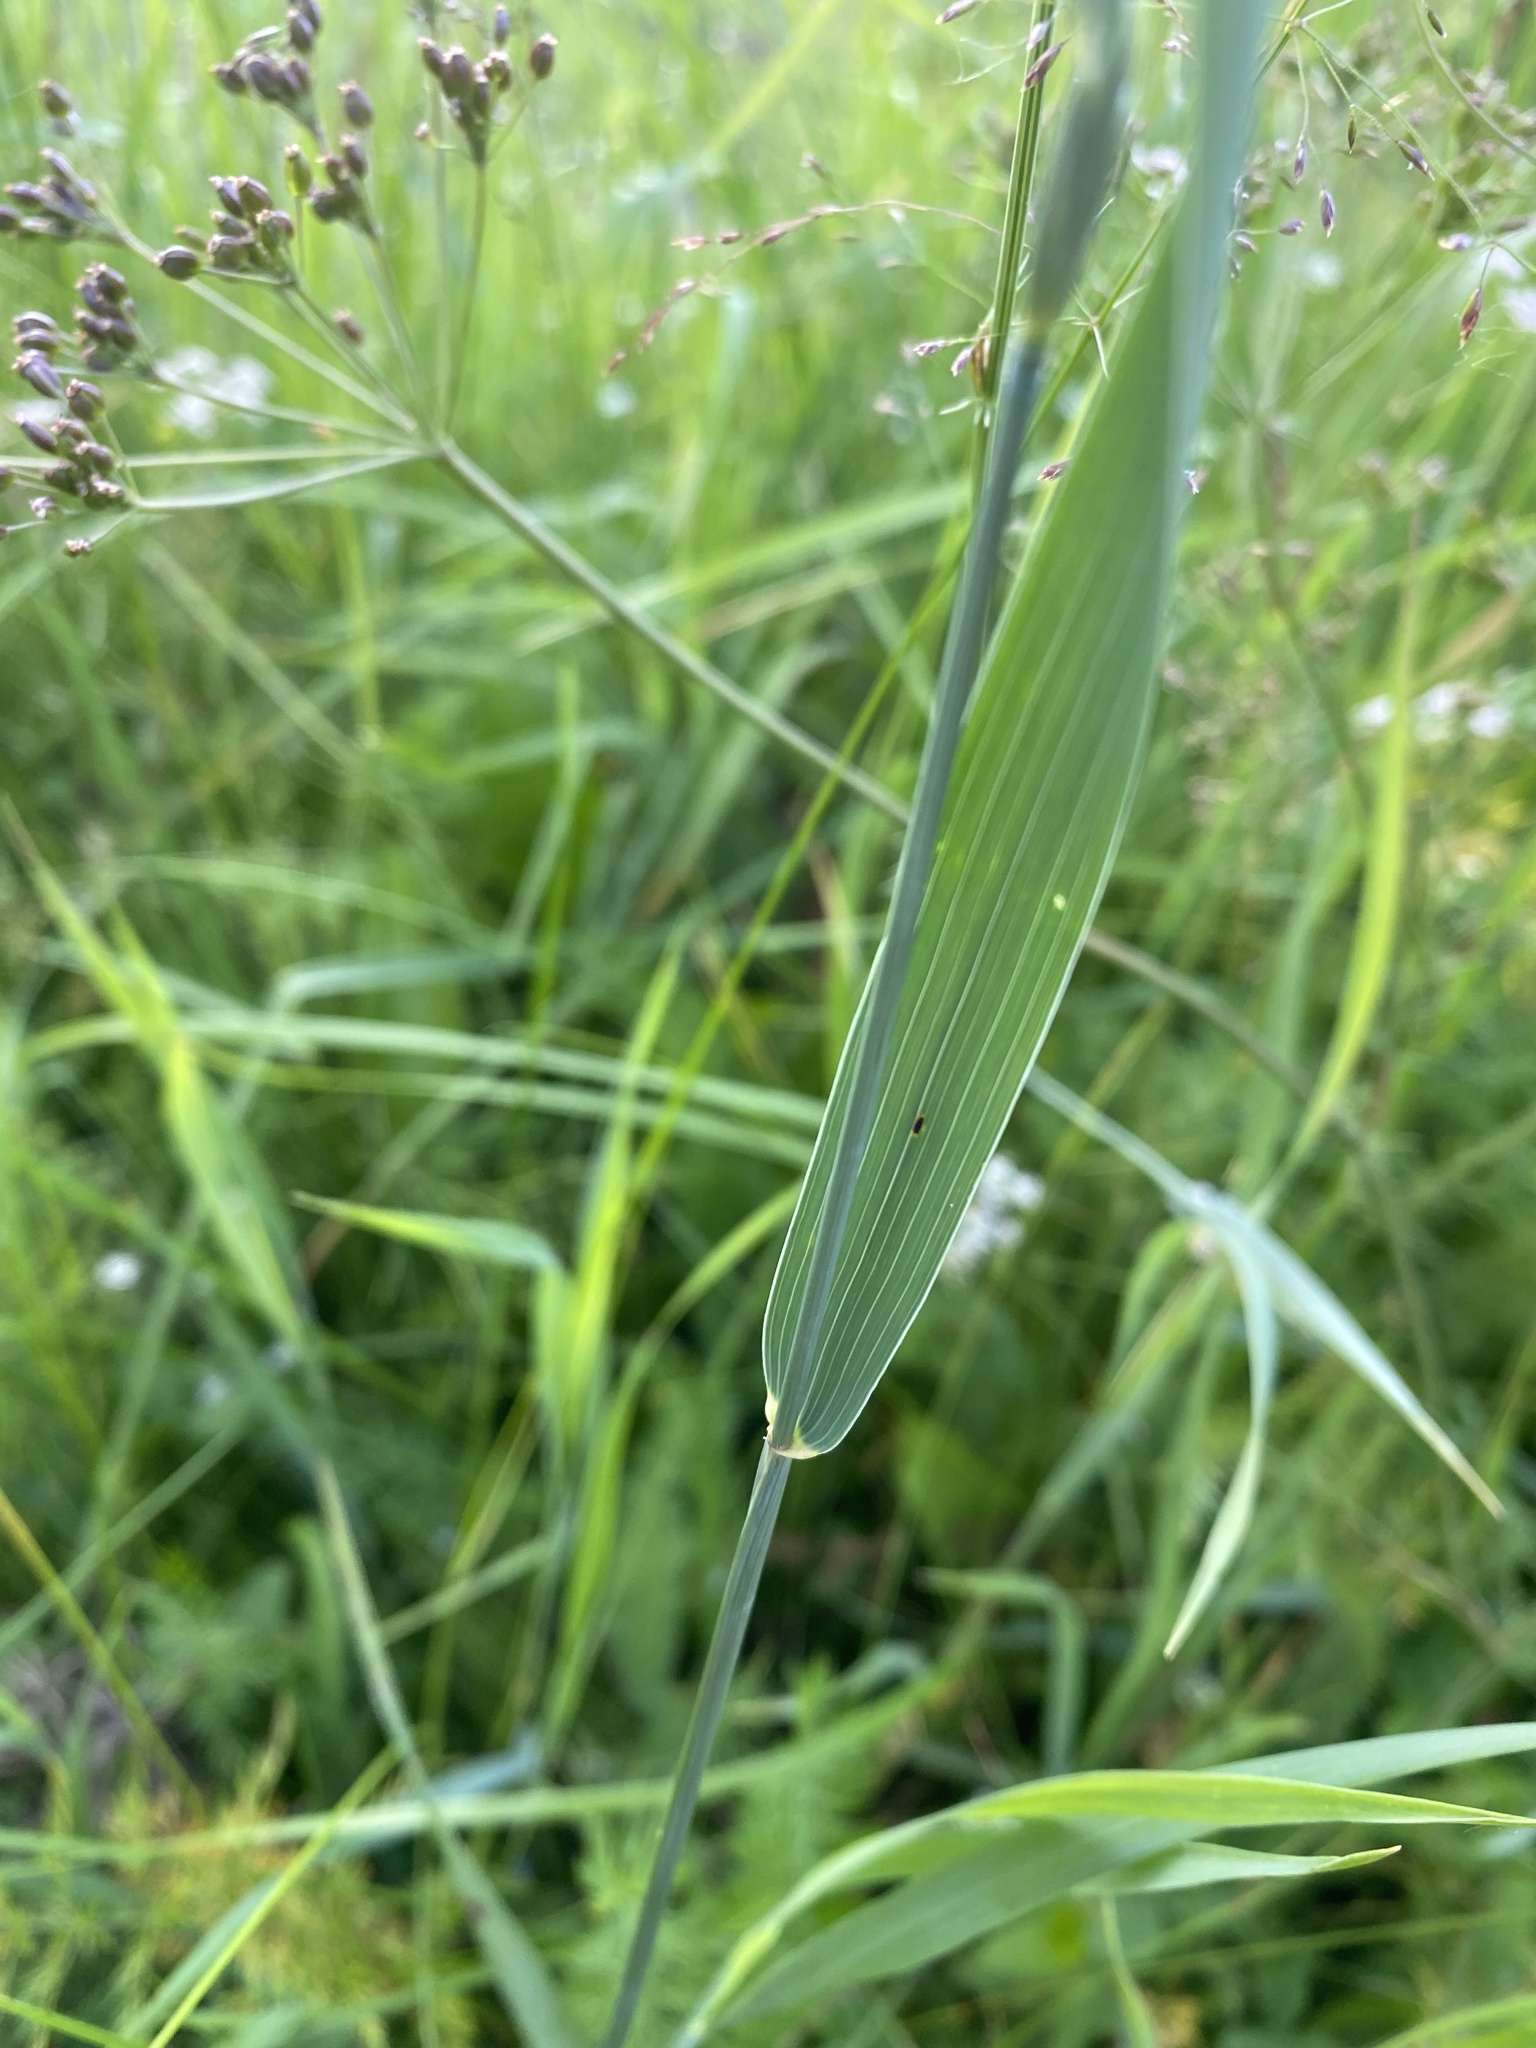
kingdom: Plantae
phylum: Tracheophyta
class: Liliopsida
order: Poales
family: Poaceae
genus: Elymus
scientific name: Elymus repens
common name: Quackgrass
